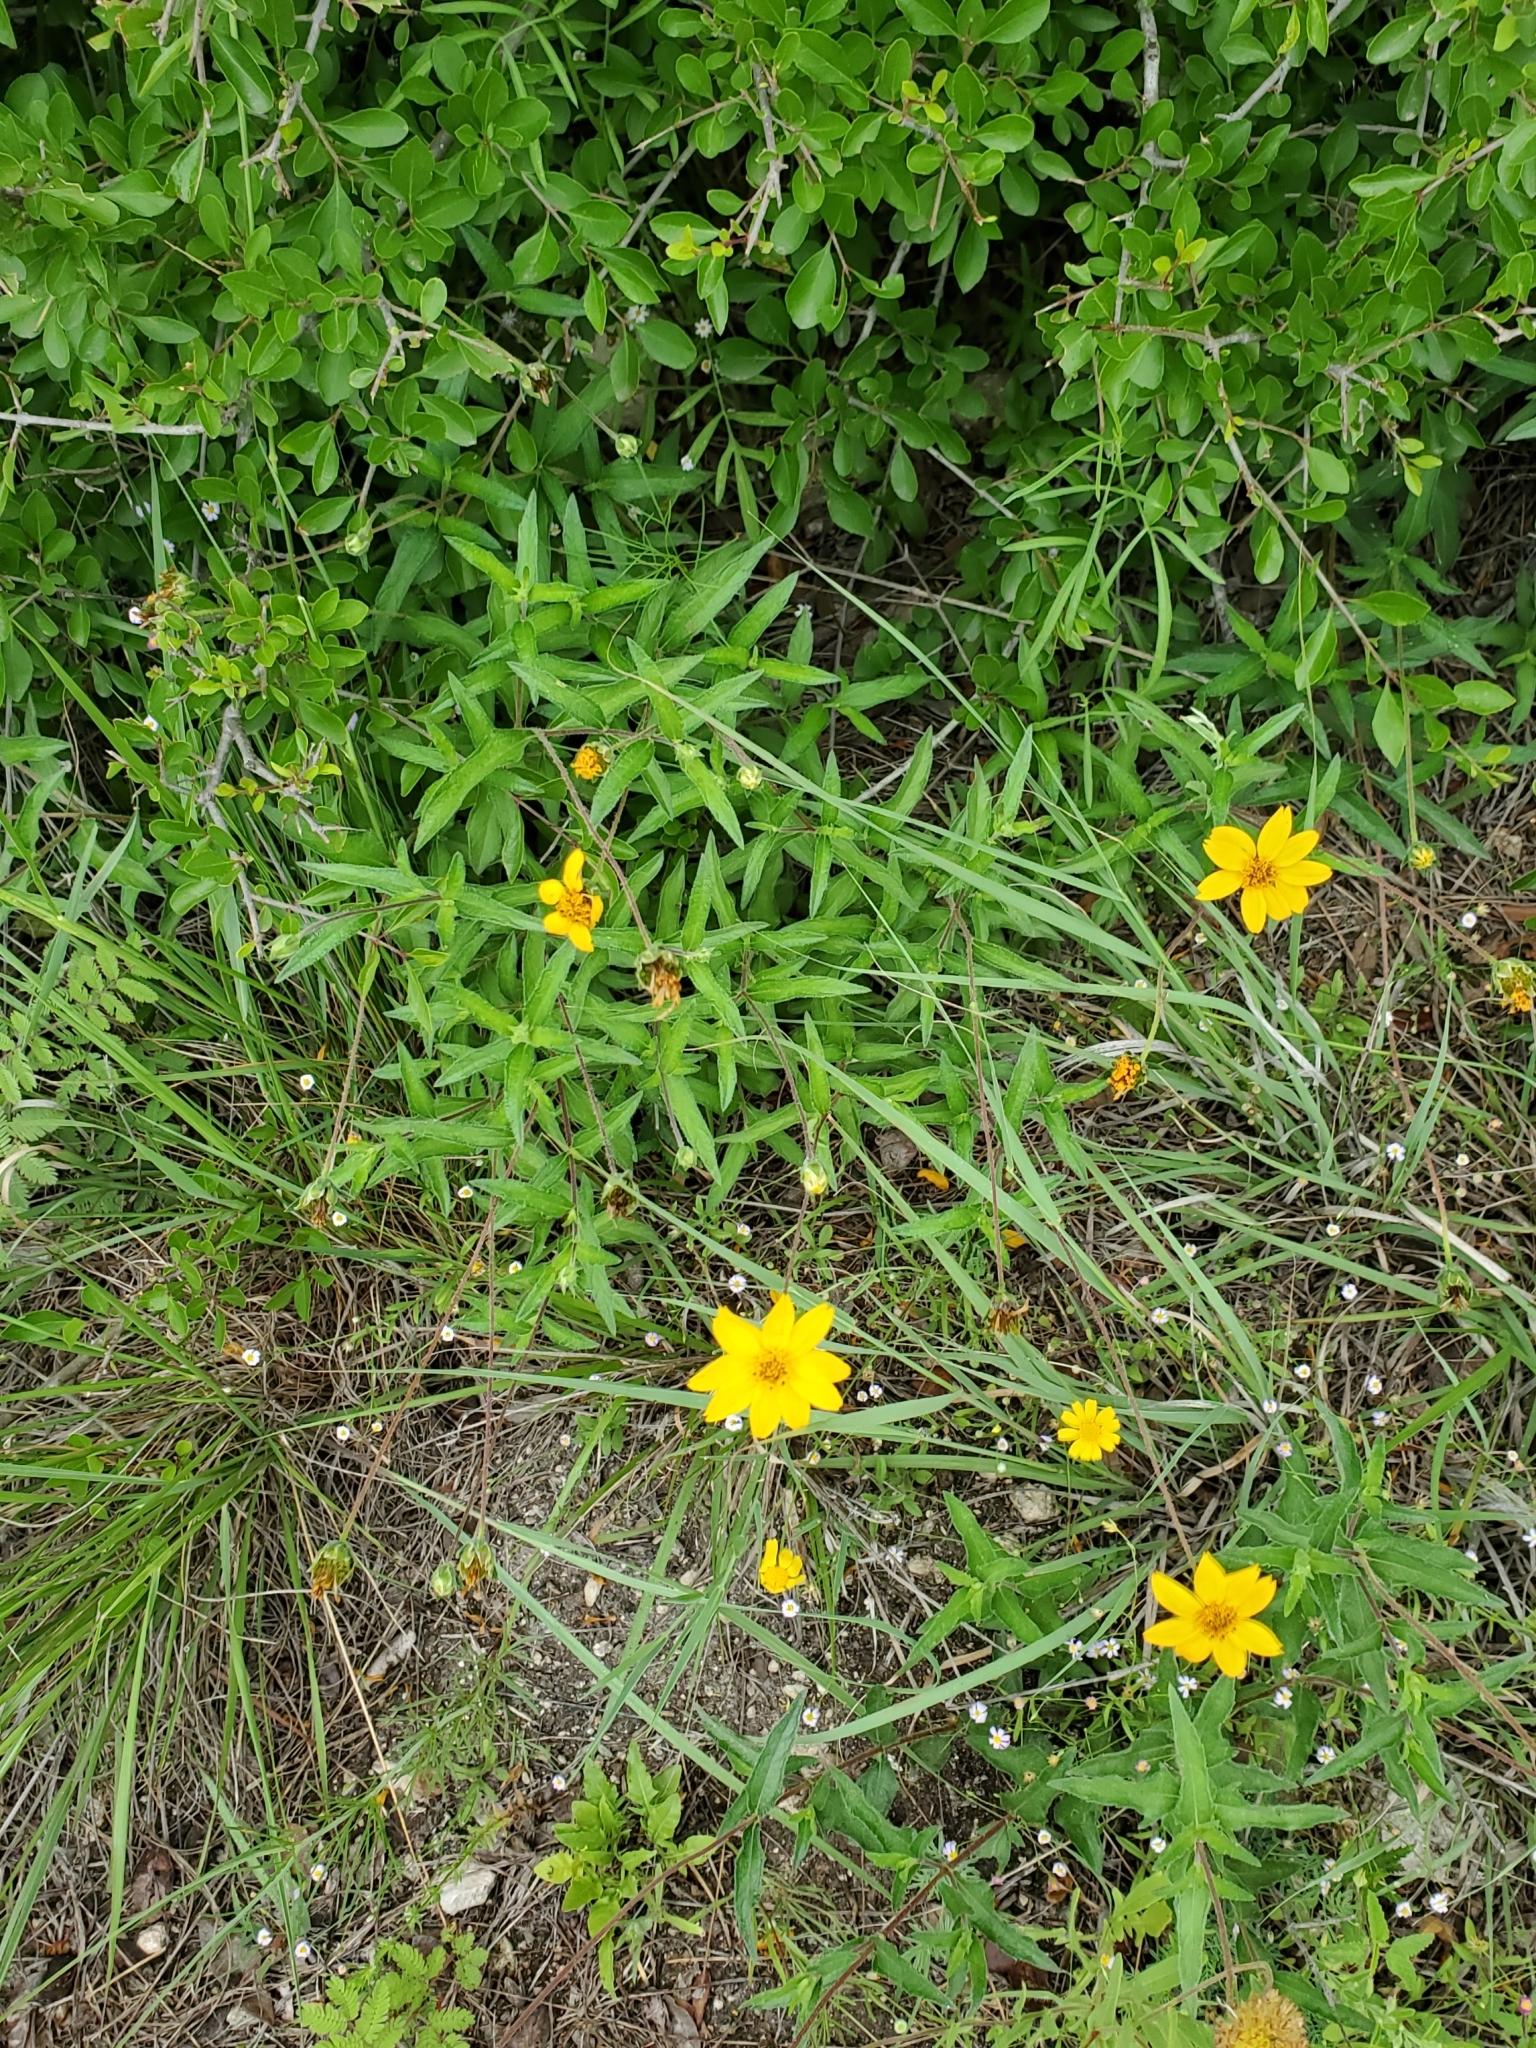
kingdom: Plantae
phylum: Tracheophyta
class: Magnoliopsida
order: Asterales
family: Asteraceae
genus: Wedelia
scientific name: Wedelia acapulcensis
